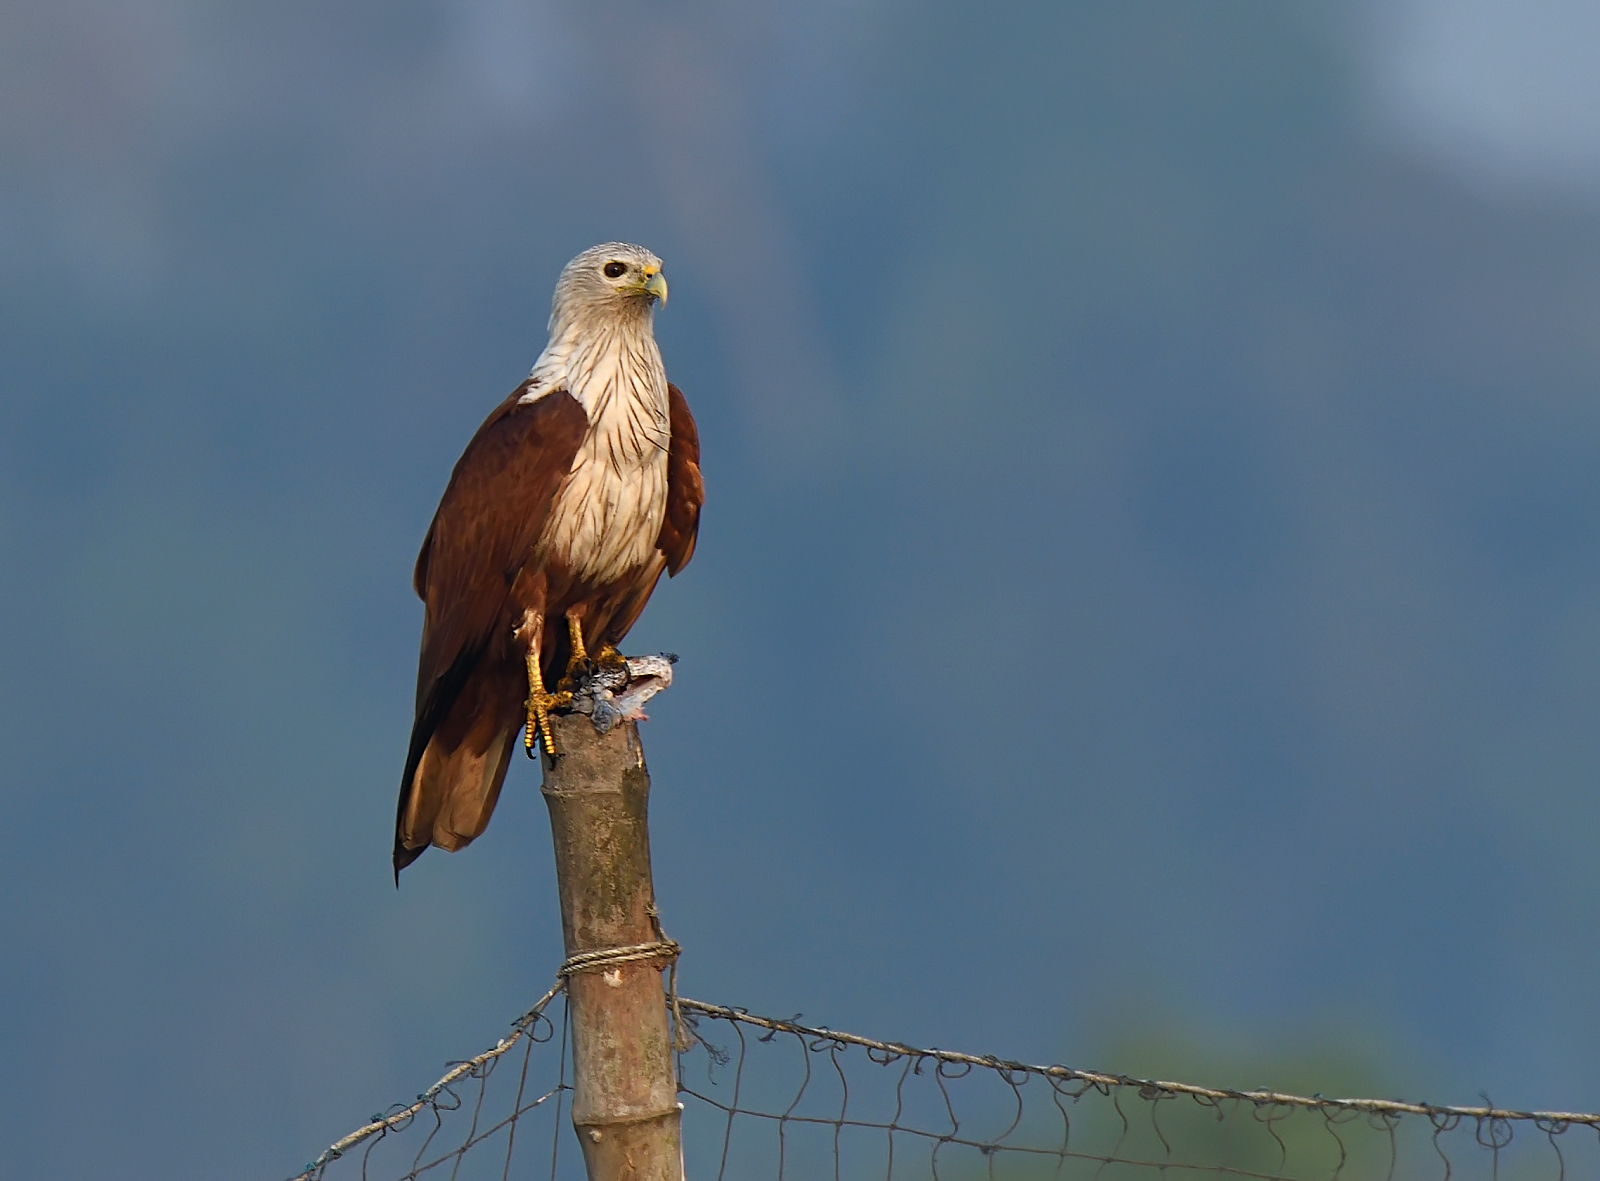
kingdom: Animalia
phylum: Chordata
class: Aves
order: Accipitriformes
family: Accipitridae
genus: Haliastur
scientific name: Haliastur indus
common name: Brahminy kite
